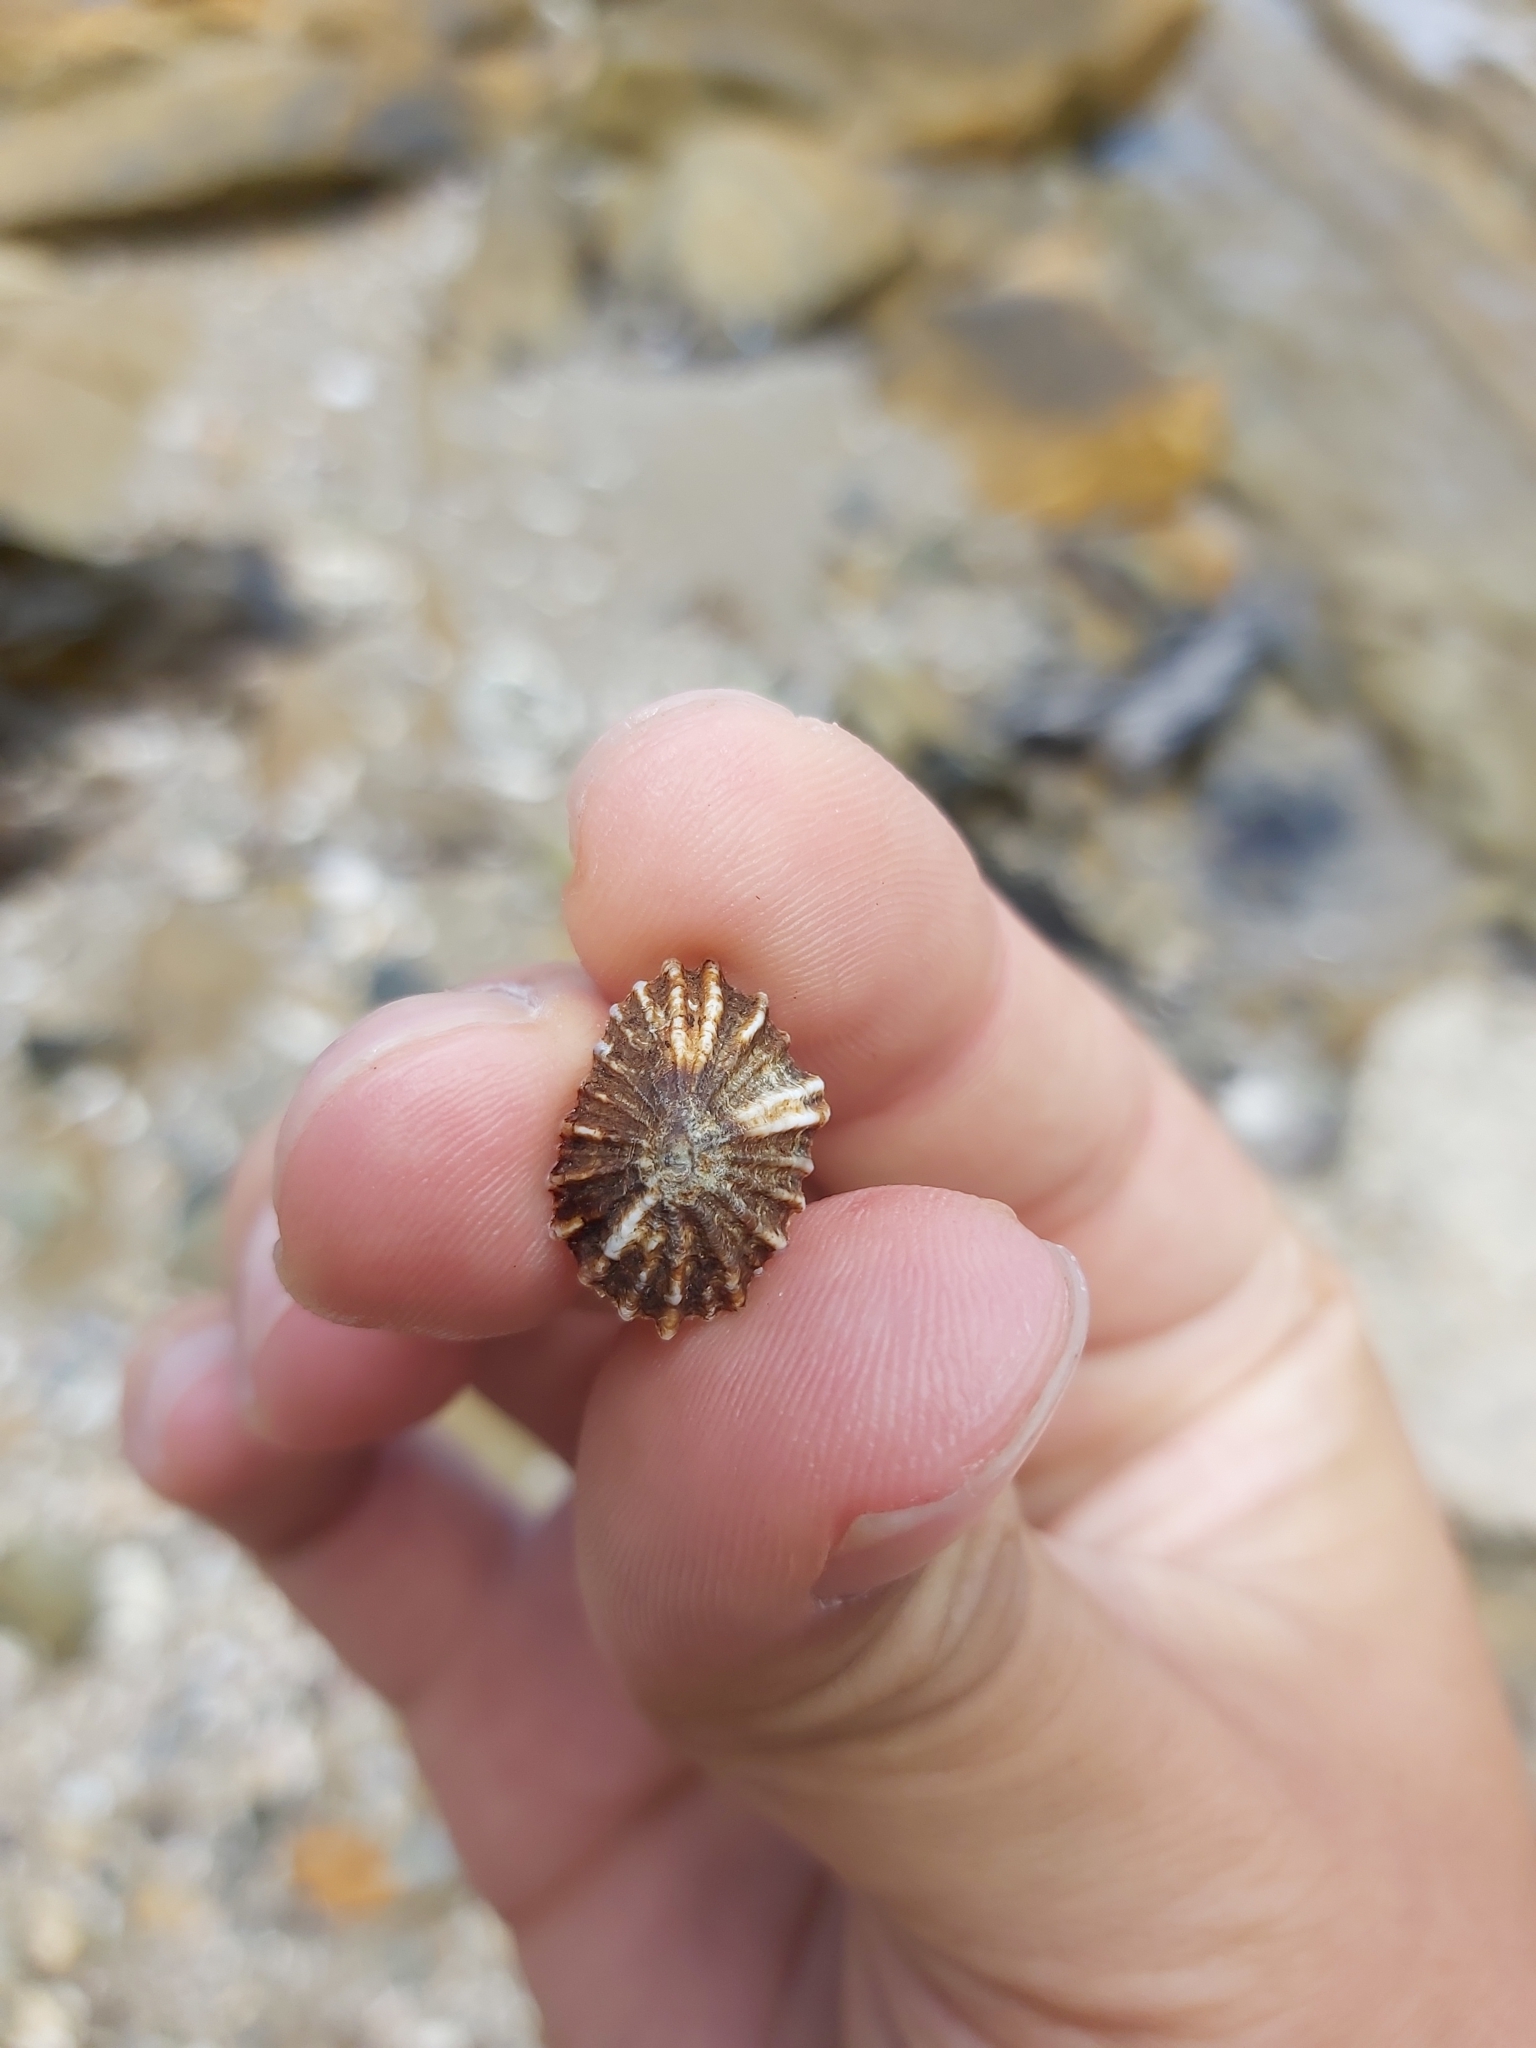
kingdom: Animalia
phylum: Mollusca
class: Gastropoda
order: Siphonariida
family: Siphonariidae
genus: Siphonaria
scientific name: Siphonaria denticulata
